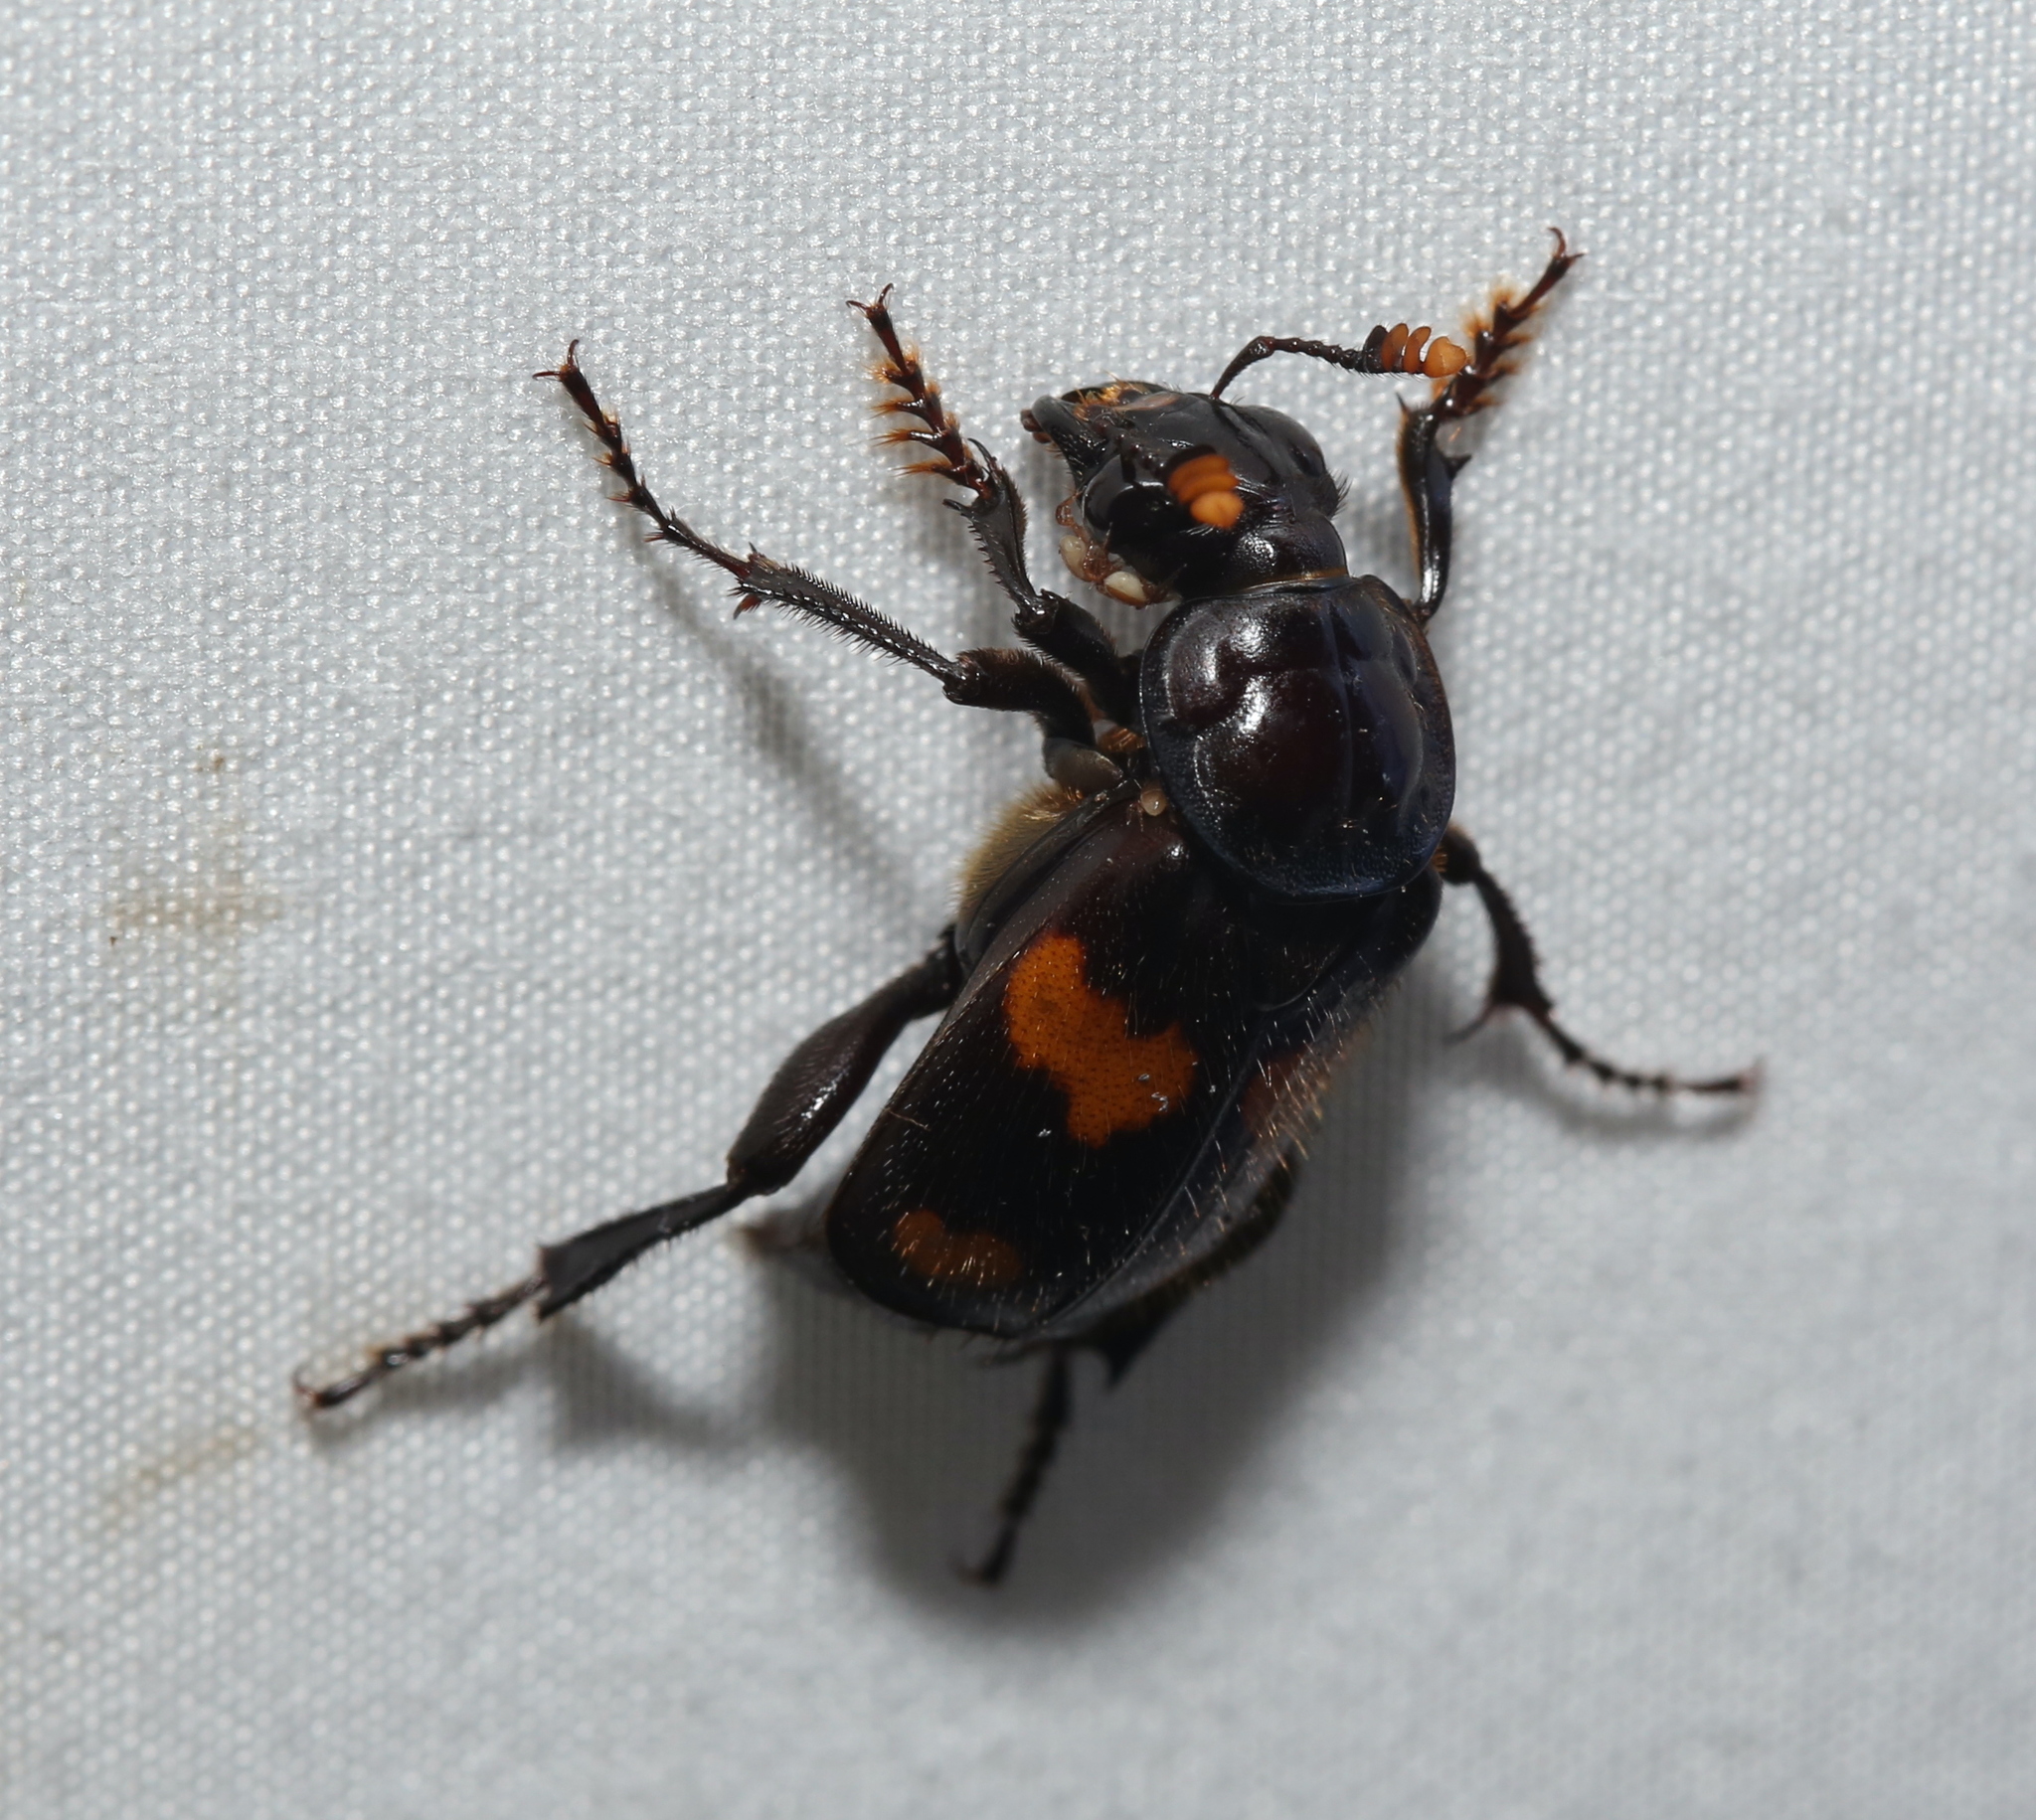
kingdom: Animalia
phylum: Arthropoda
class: Insecta
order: Coleoptera
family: Staphylinidae
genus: Nicrophorus
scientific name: Nicrophorus orbicollis
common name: Roundneck sexton beetle
